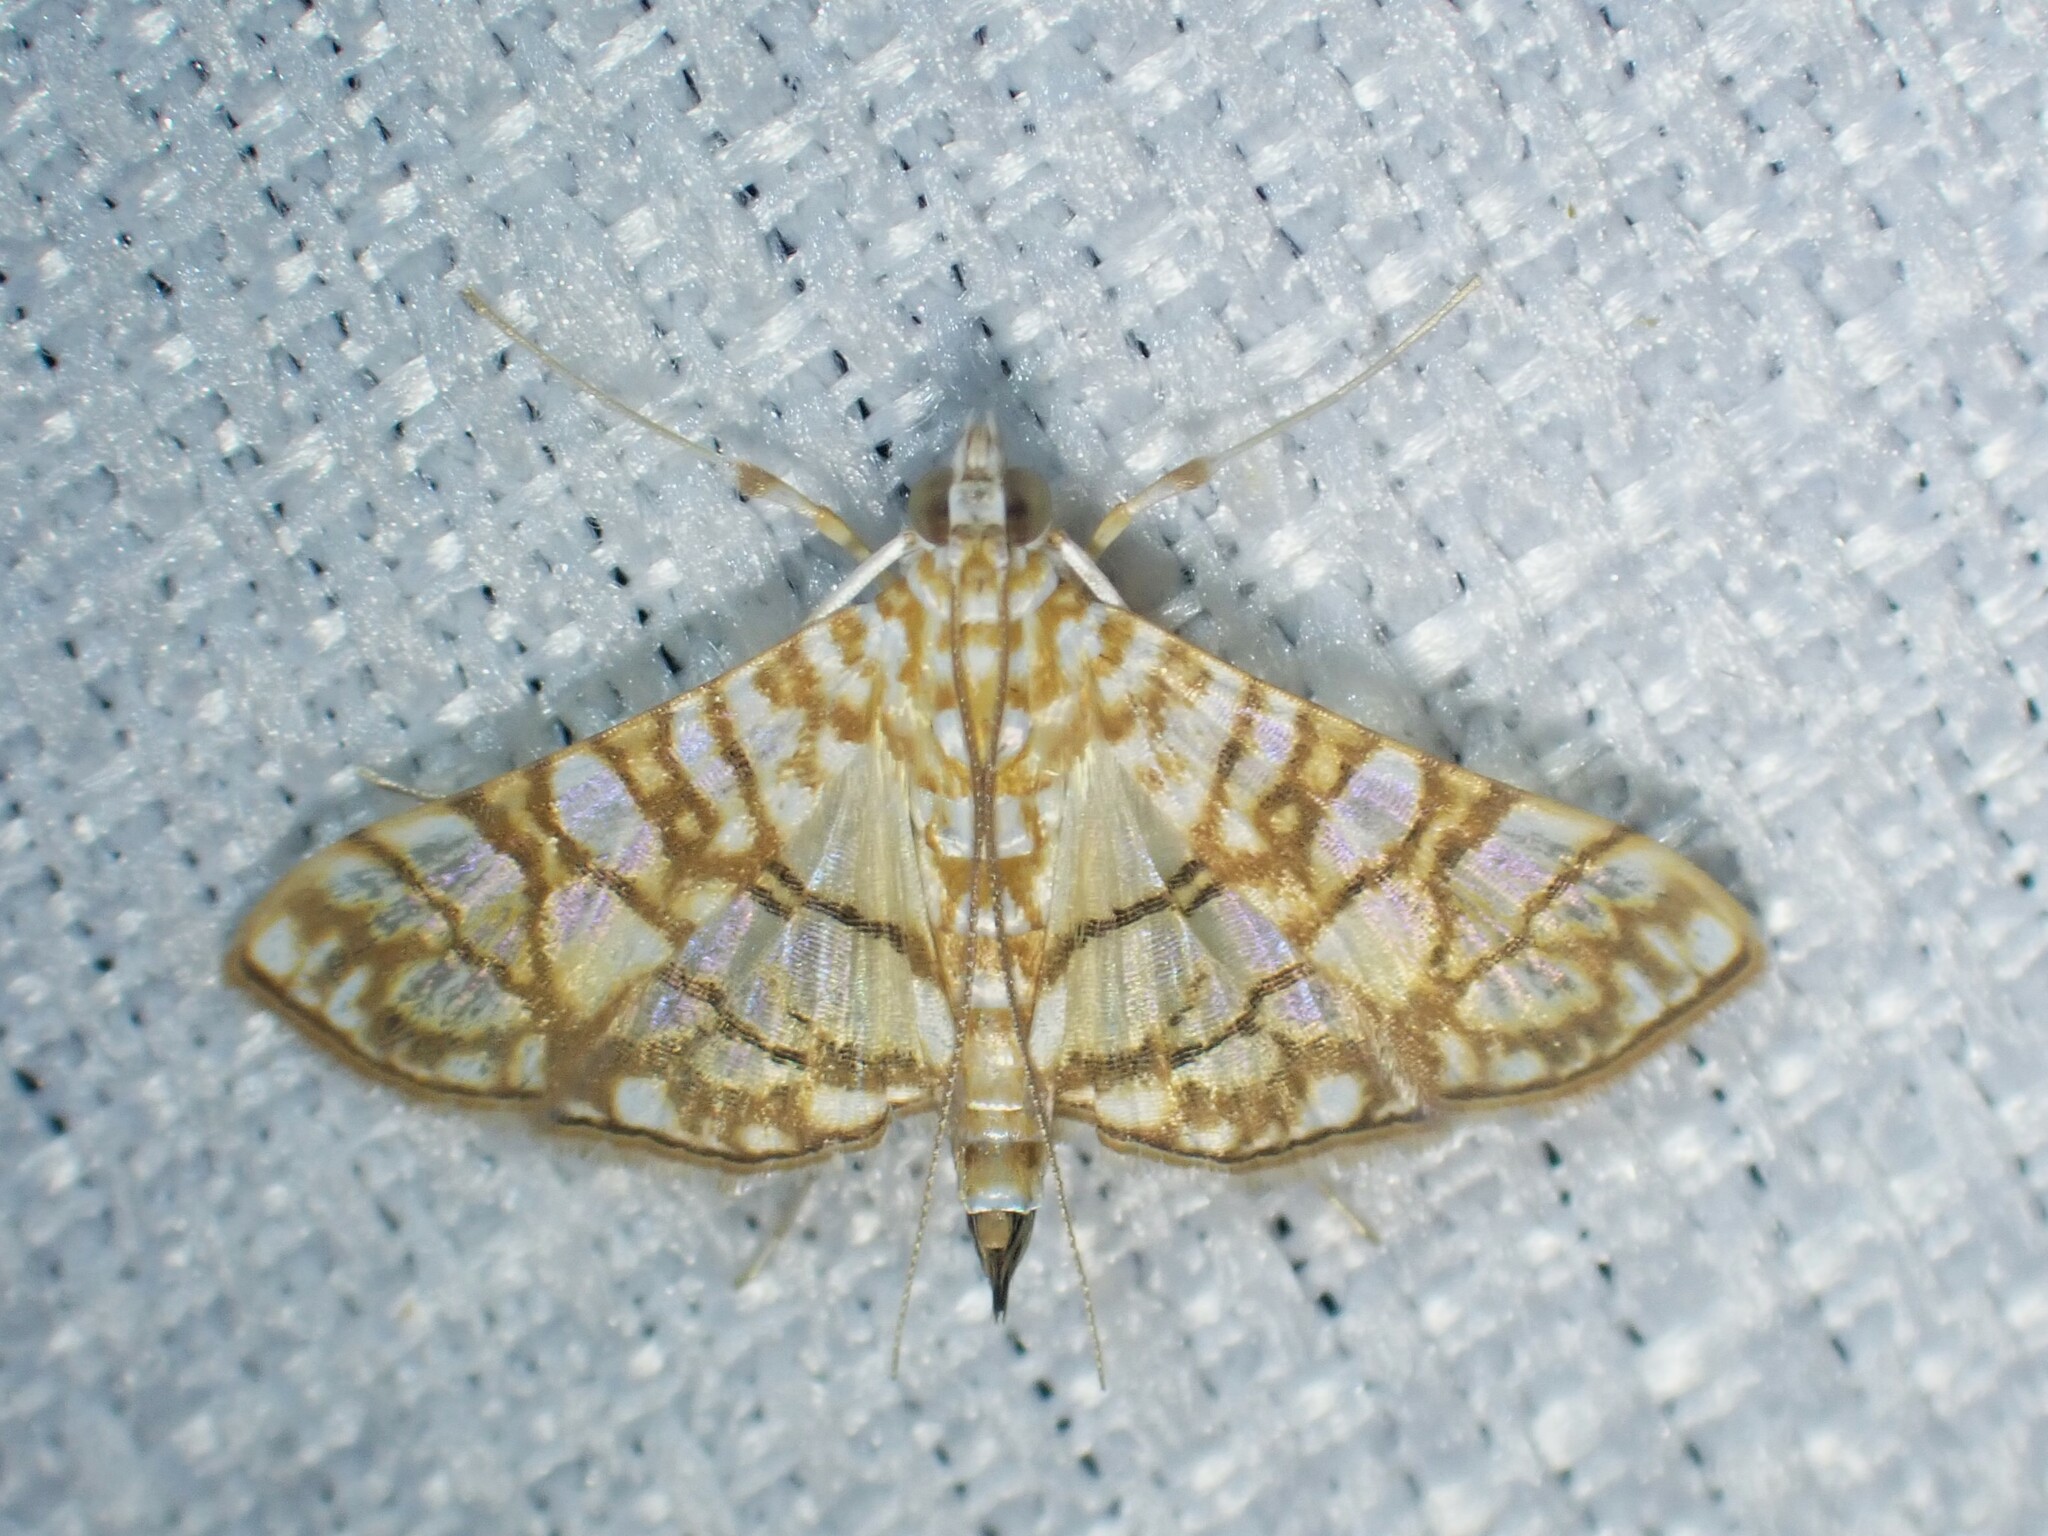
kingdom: Animalia
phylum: Arthropoda
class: Insecta
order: Lepidoptera
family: Crambidae
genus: Synclera
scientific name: Synclera traducalis
